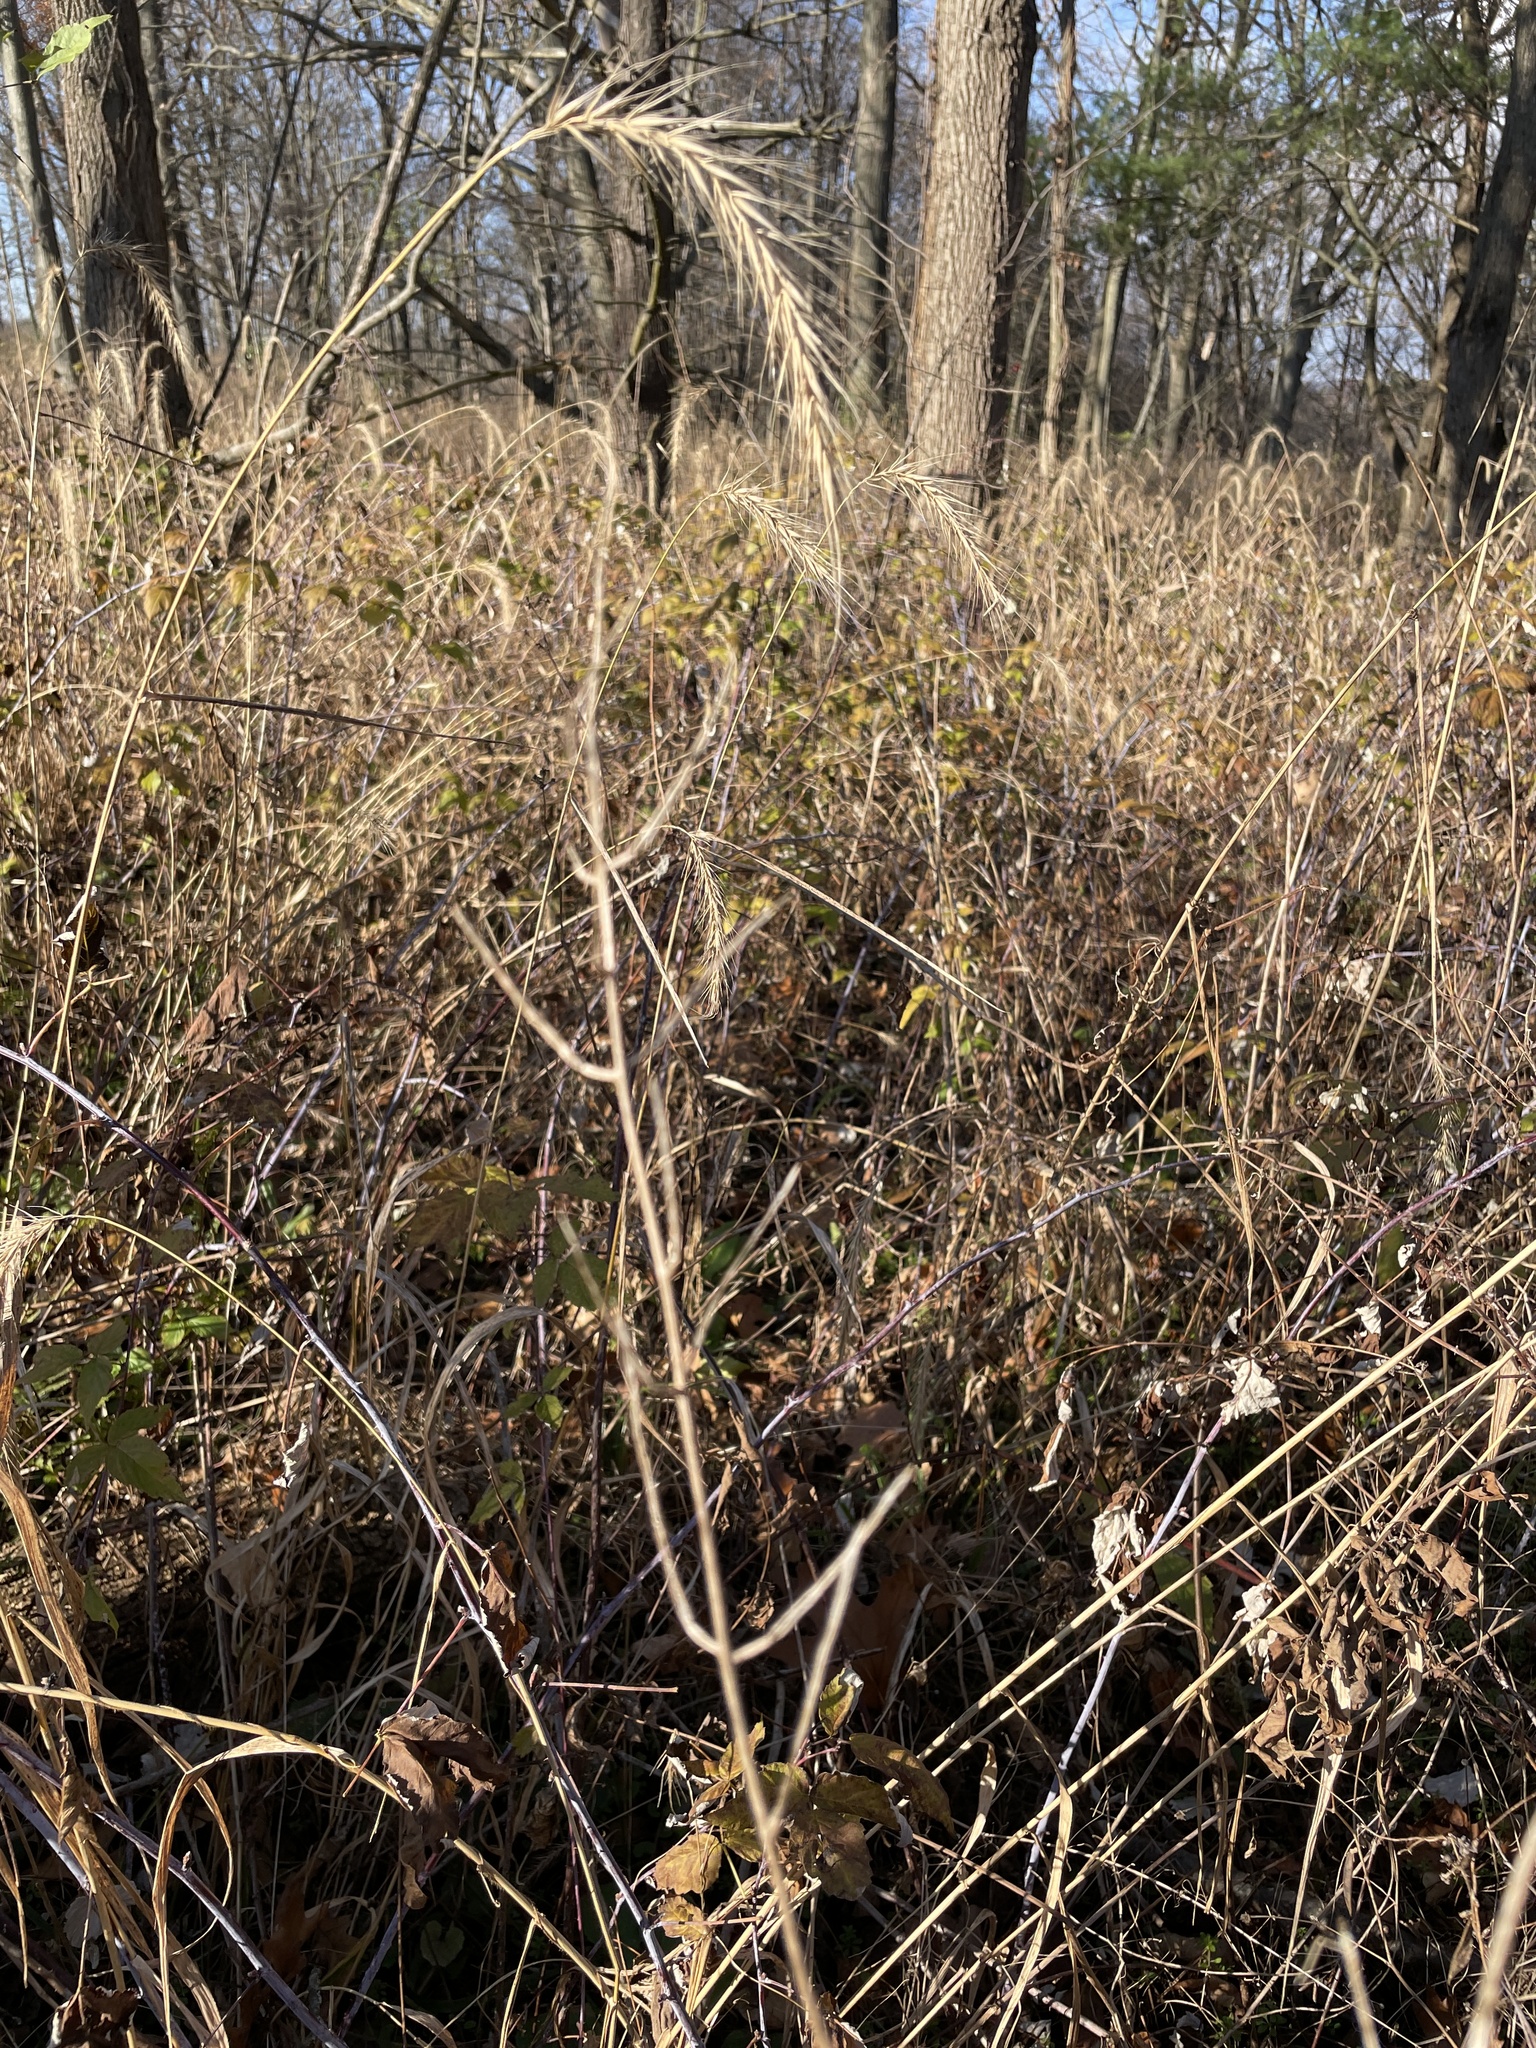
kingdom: Plantae
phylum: Tracheophyta
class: Magnoliopsida
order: Brassicales
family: Brassicaceae
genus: Hesperis
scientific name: Hesperis matronalis
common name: Dame's-violet
